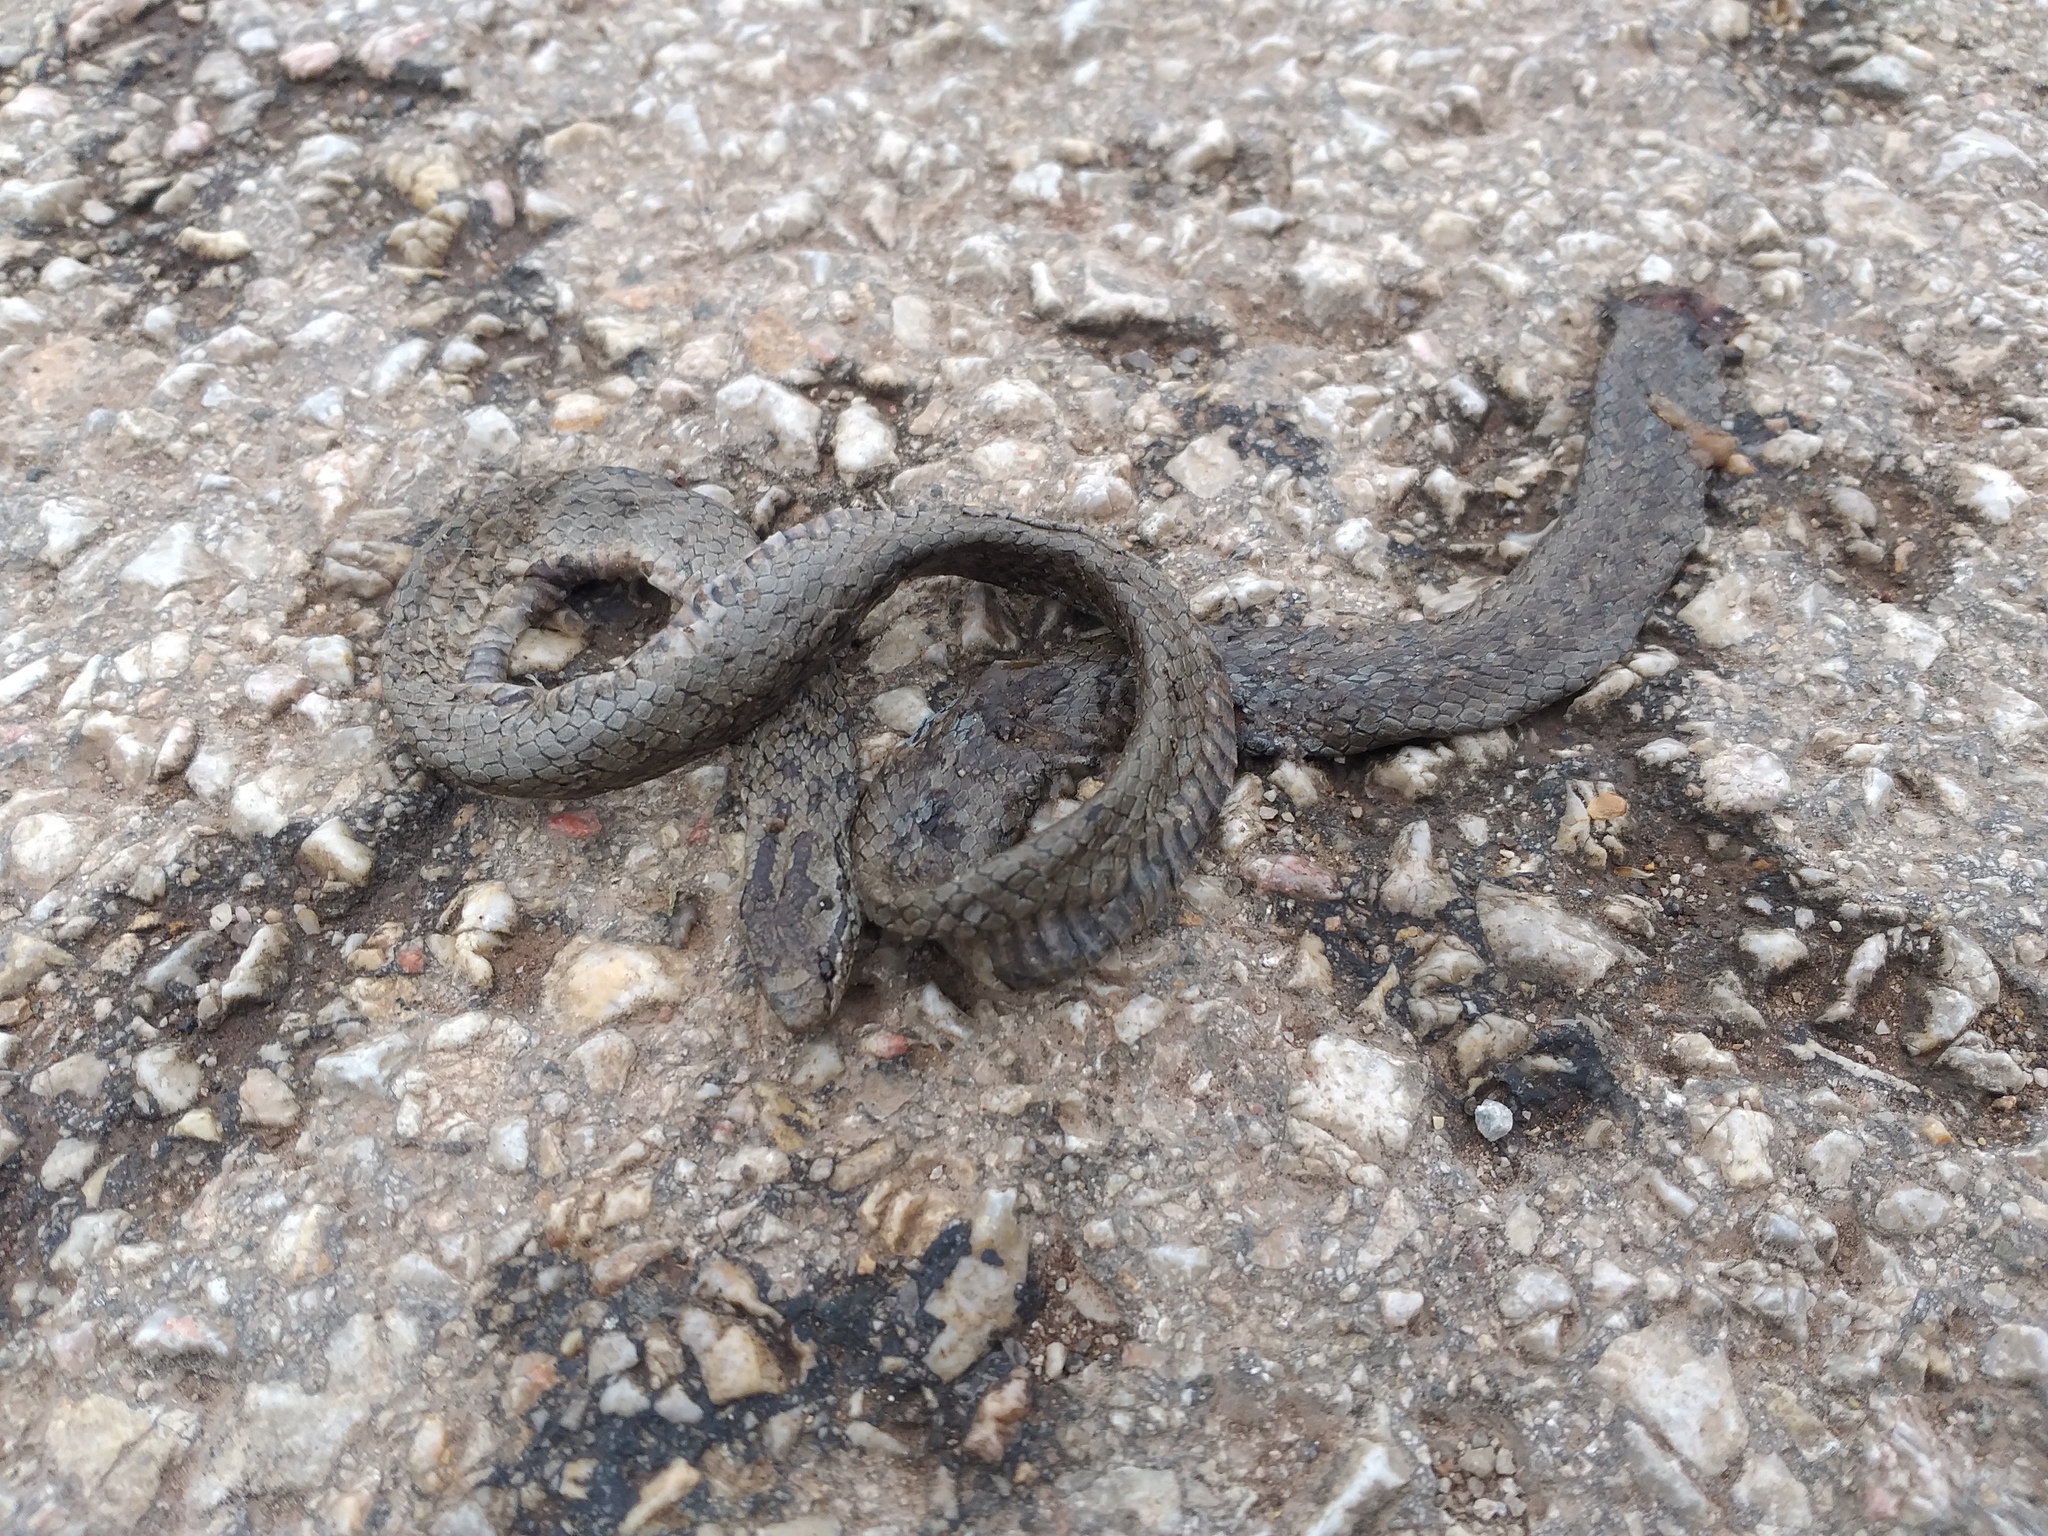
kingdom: Animalia
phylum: Chordata
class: Squamata
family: Colubridae
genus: Coronella
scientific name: Coronella austriaca
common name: Smooth snake
